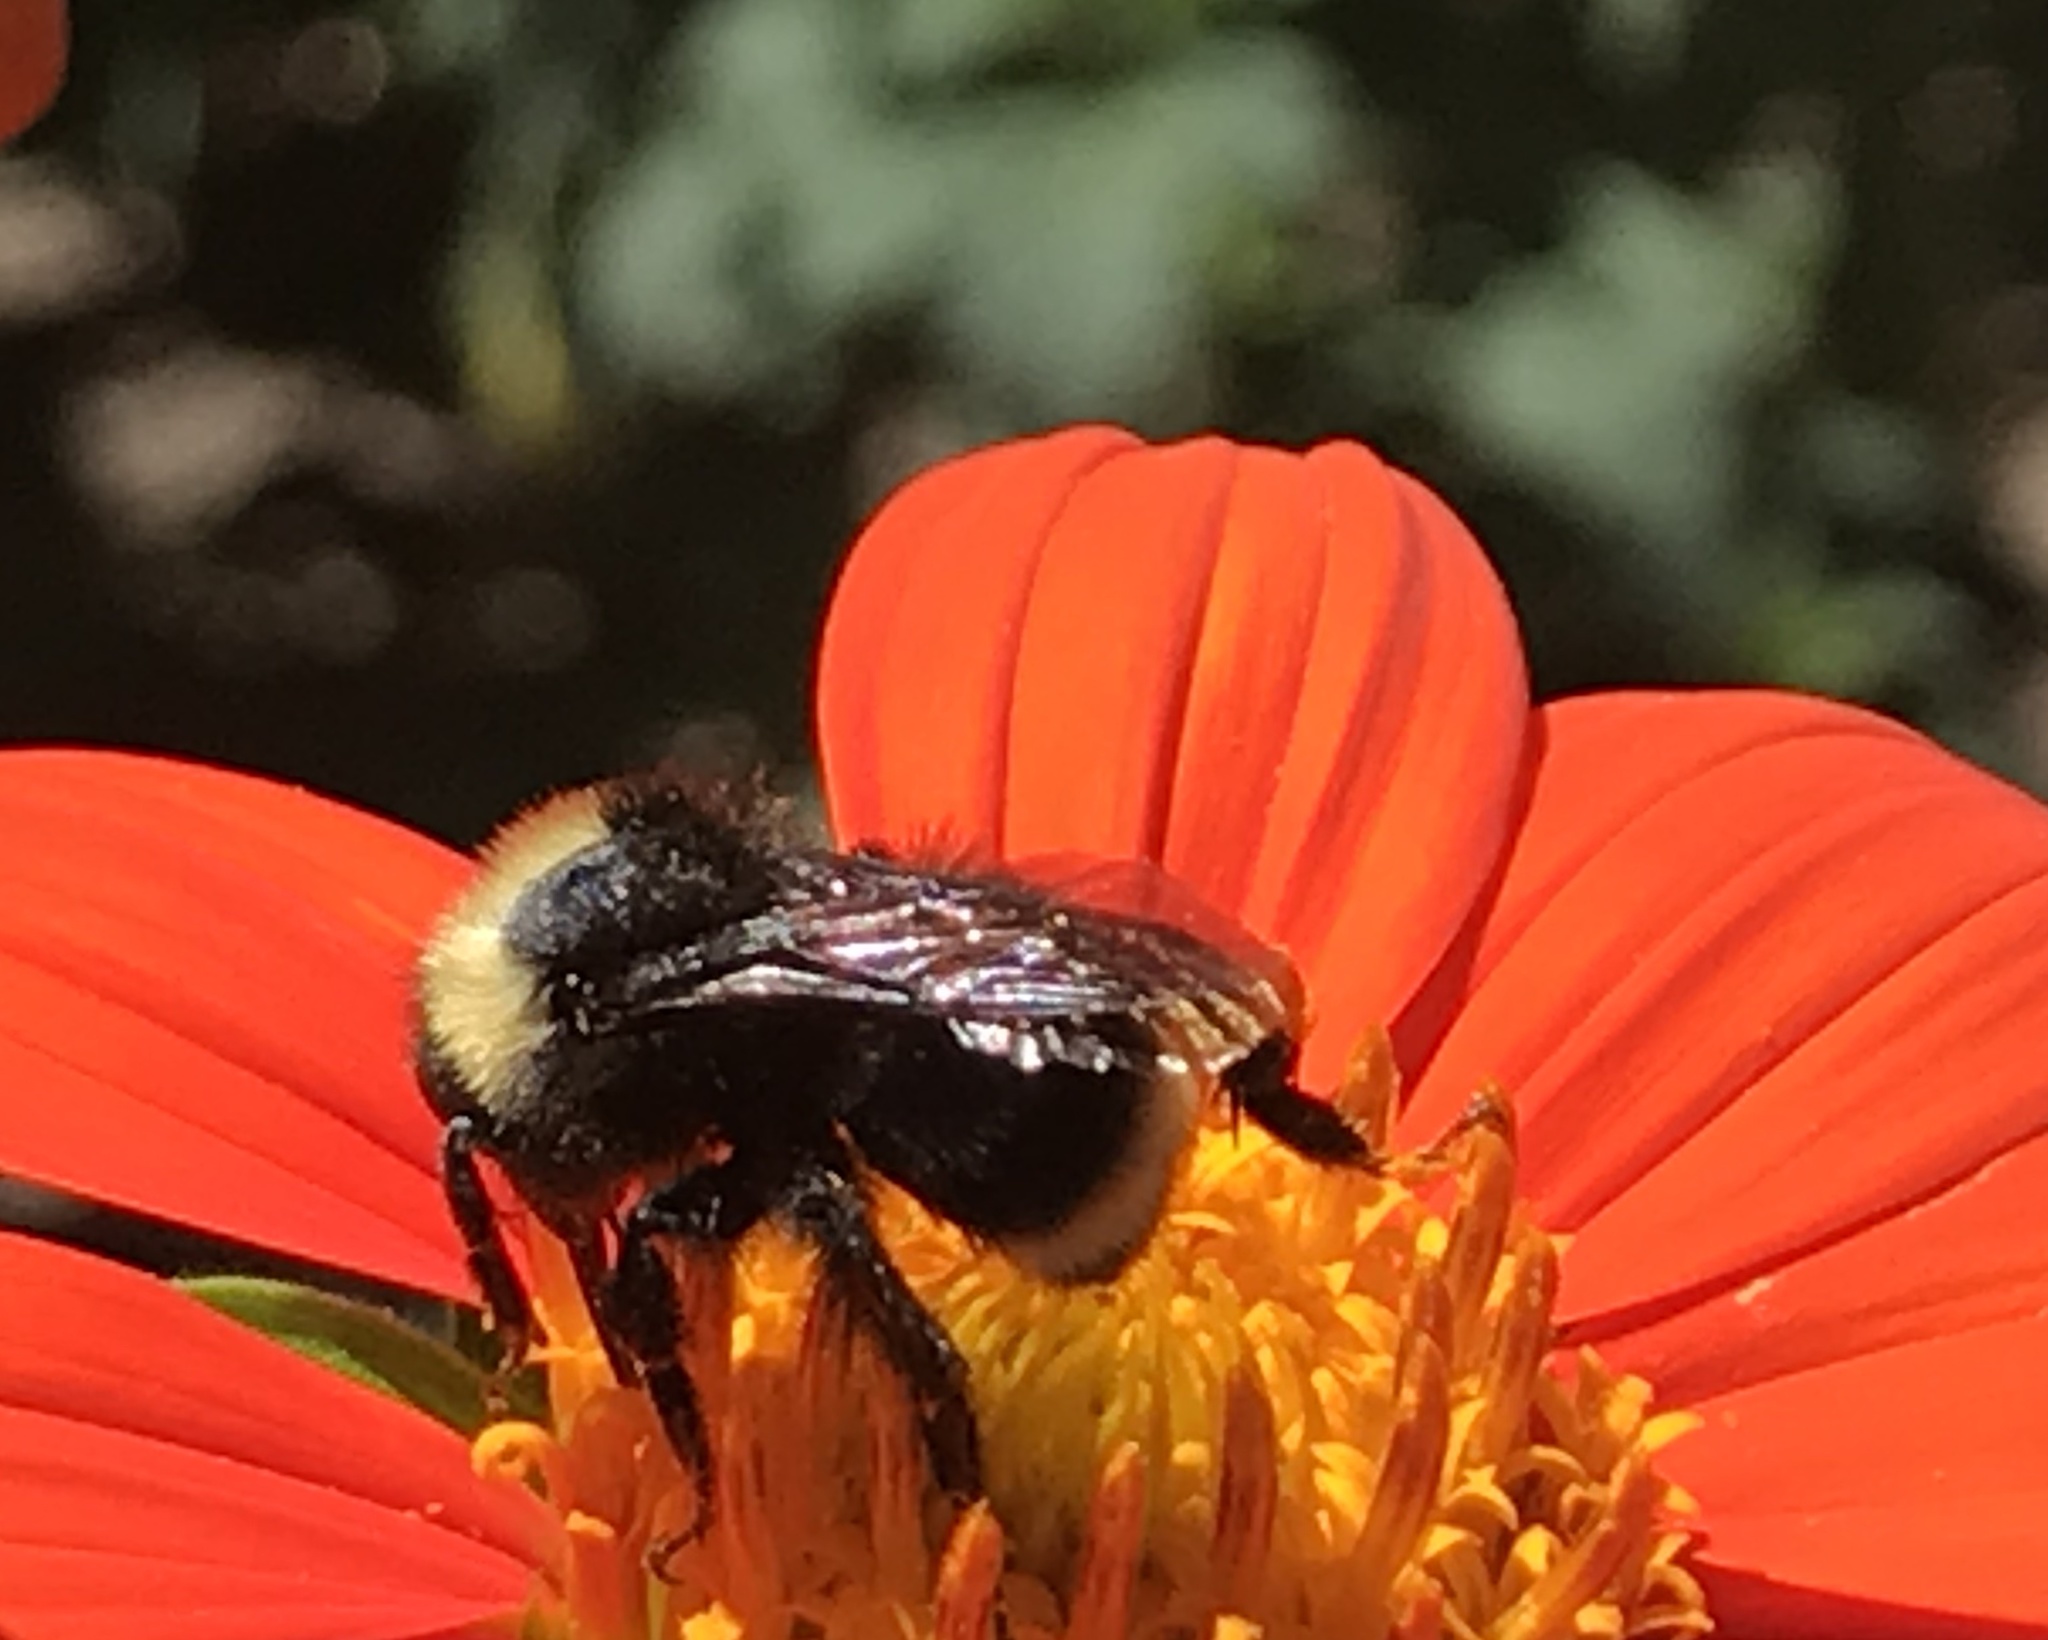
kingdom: Animalia
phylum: Arthropoda
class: Insecta
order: Hymenoptera
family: Apidae
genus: Bombus
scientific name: Bombus californicus
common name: California bumble bee
